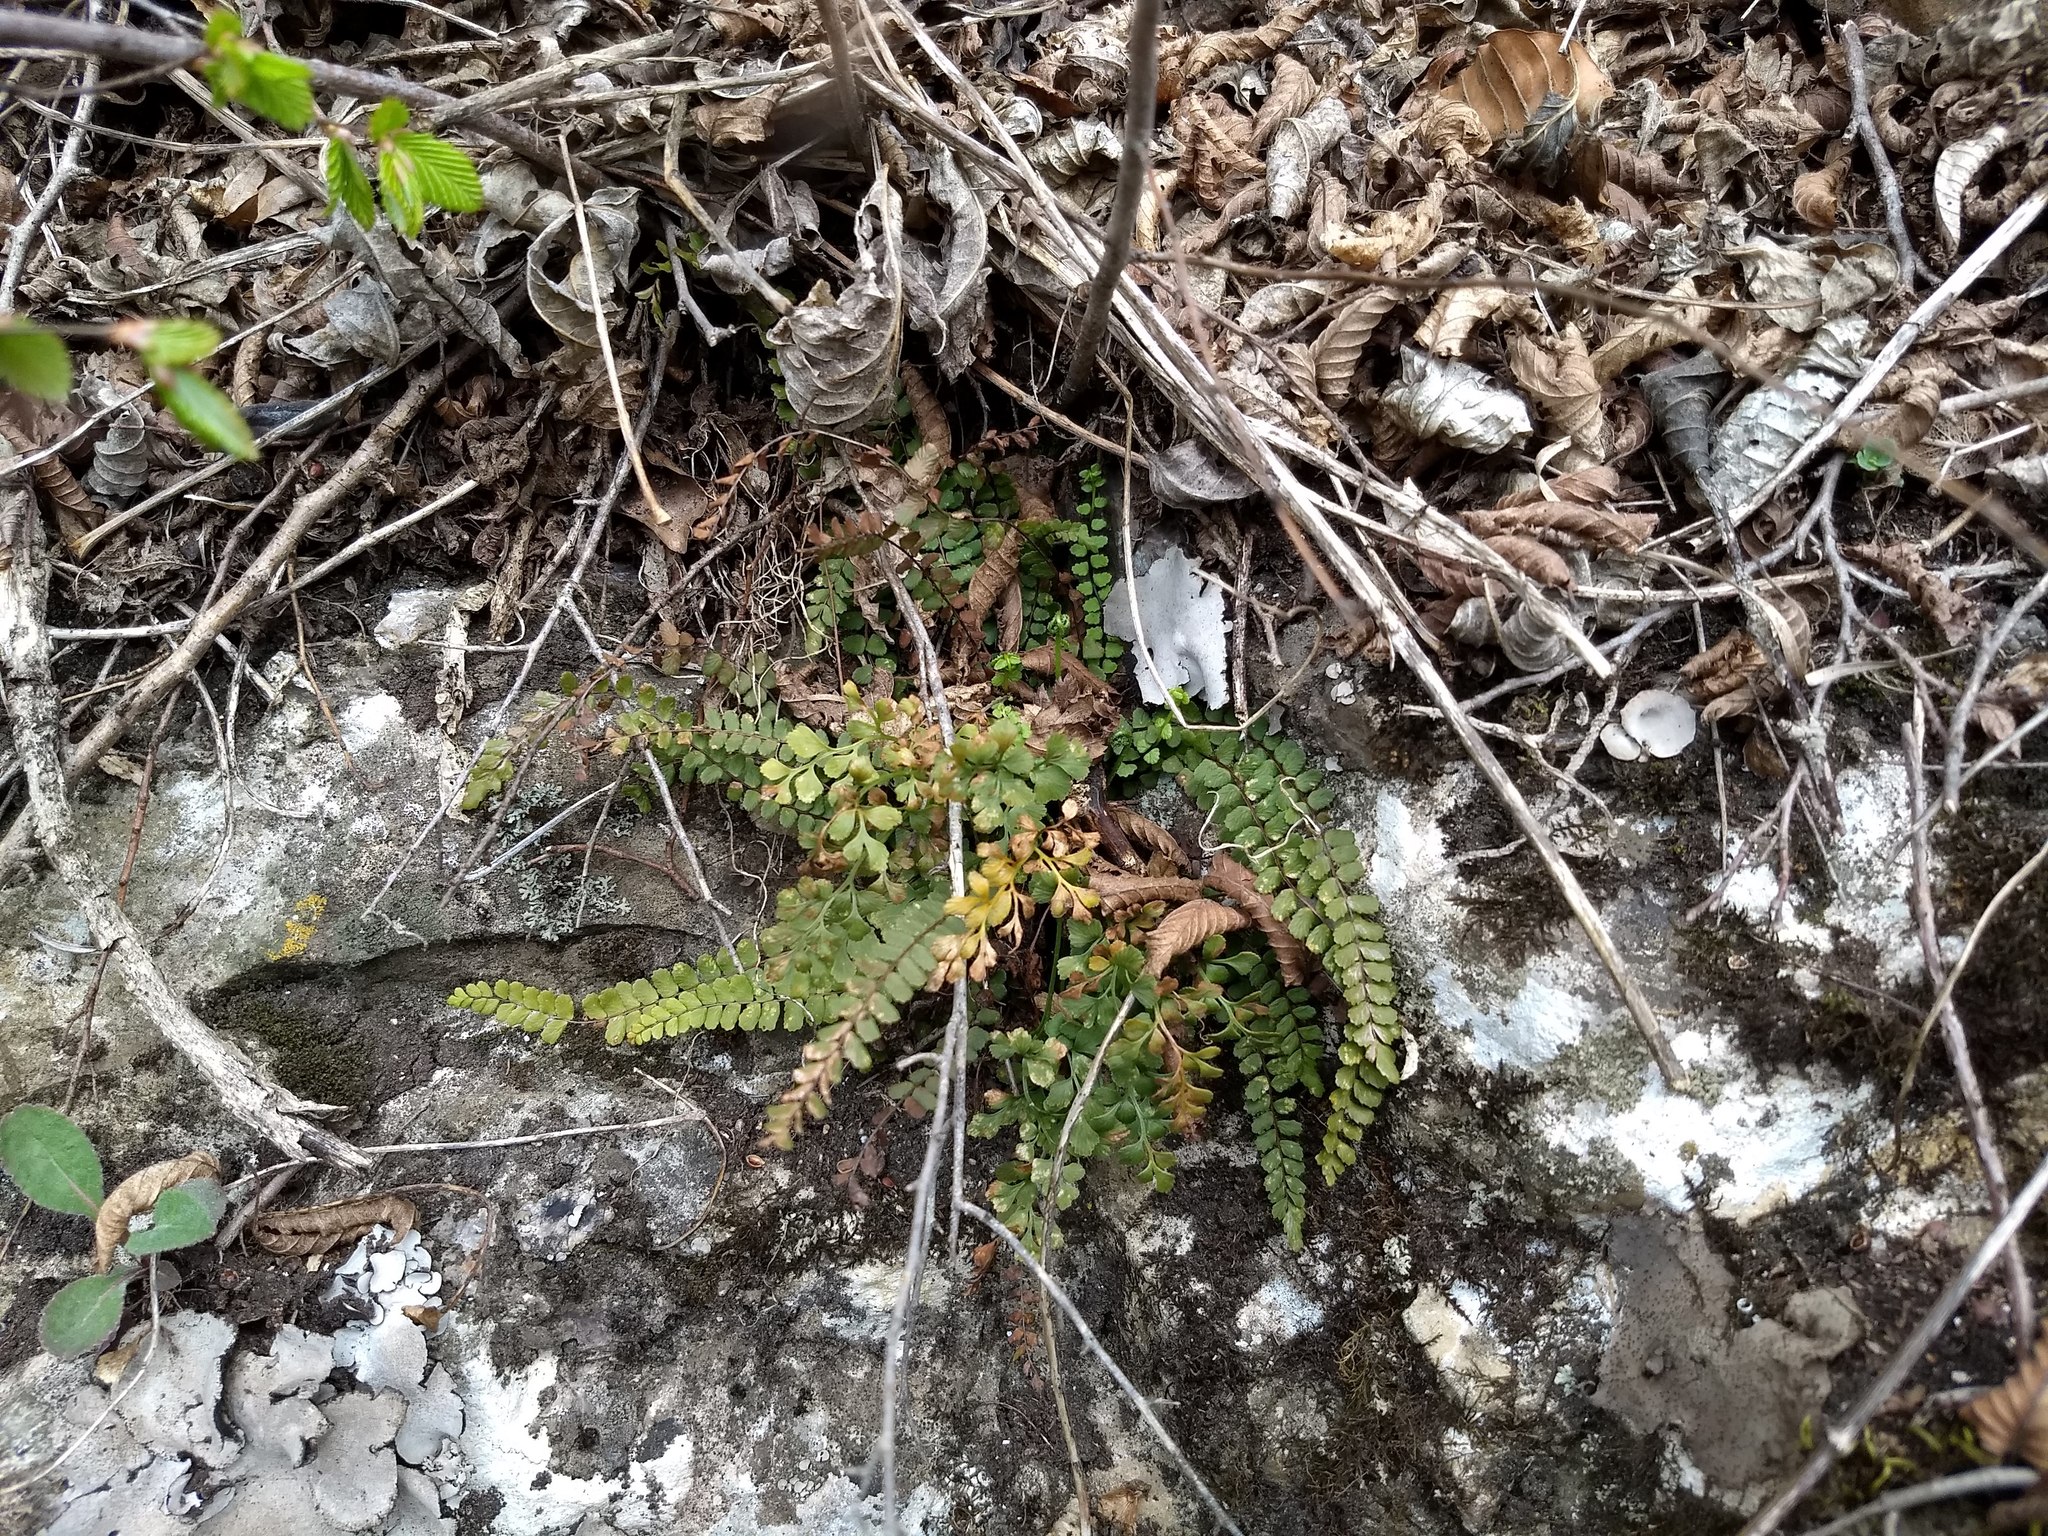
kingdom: Plantae
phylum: Tracheophyta
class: Polypodiopsida
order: Polypodiales
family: Aspleniaceae
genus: Asplenium
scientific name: Asplenium trichomanes
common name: Maidenhair spleenwort
